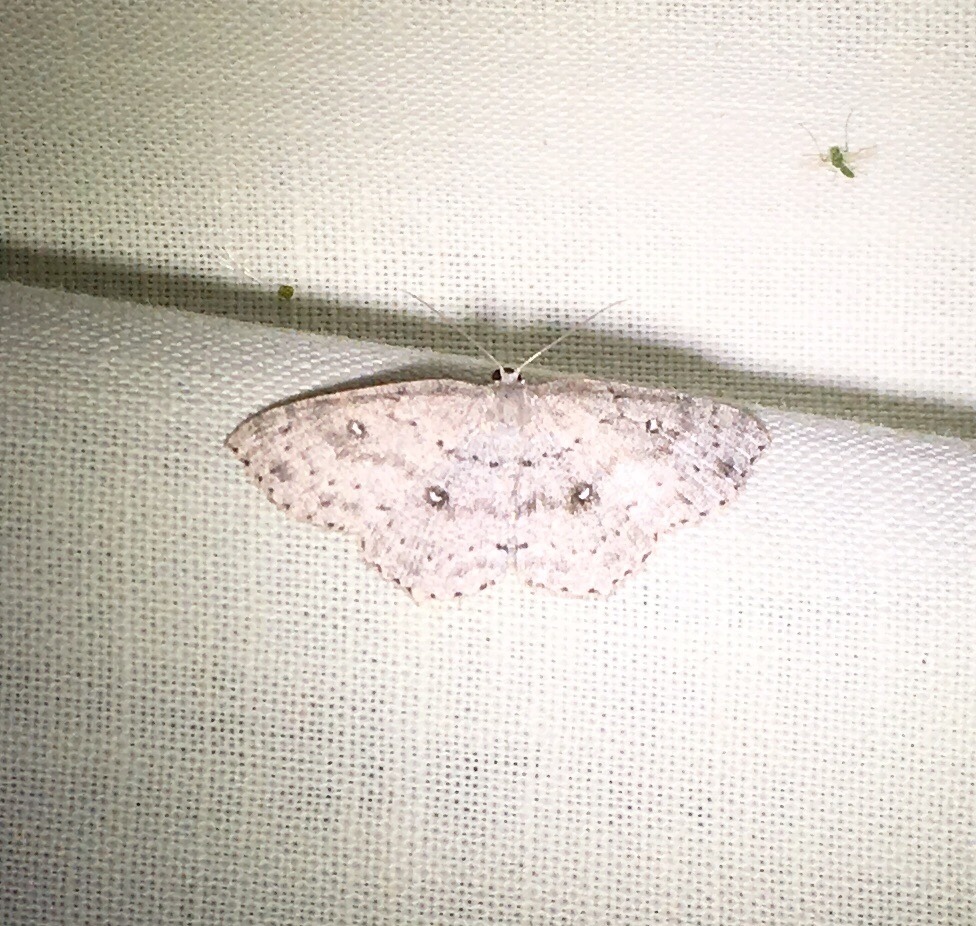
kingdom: Animalia
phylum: Arthropoda
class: Insecta
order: Lepidoptera
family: Geometridae
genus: Cyclophora
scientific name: Cyclophora pendulinaria
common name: Sweet fern geometer
